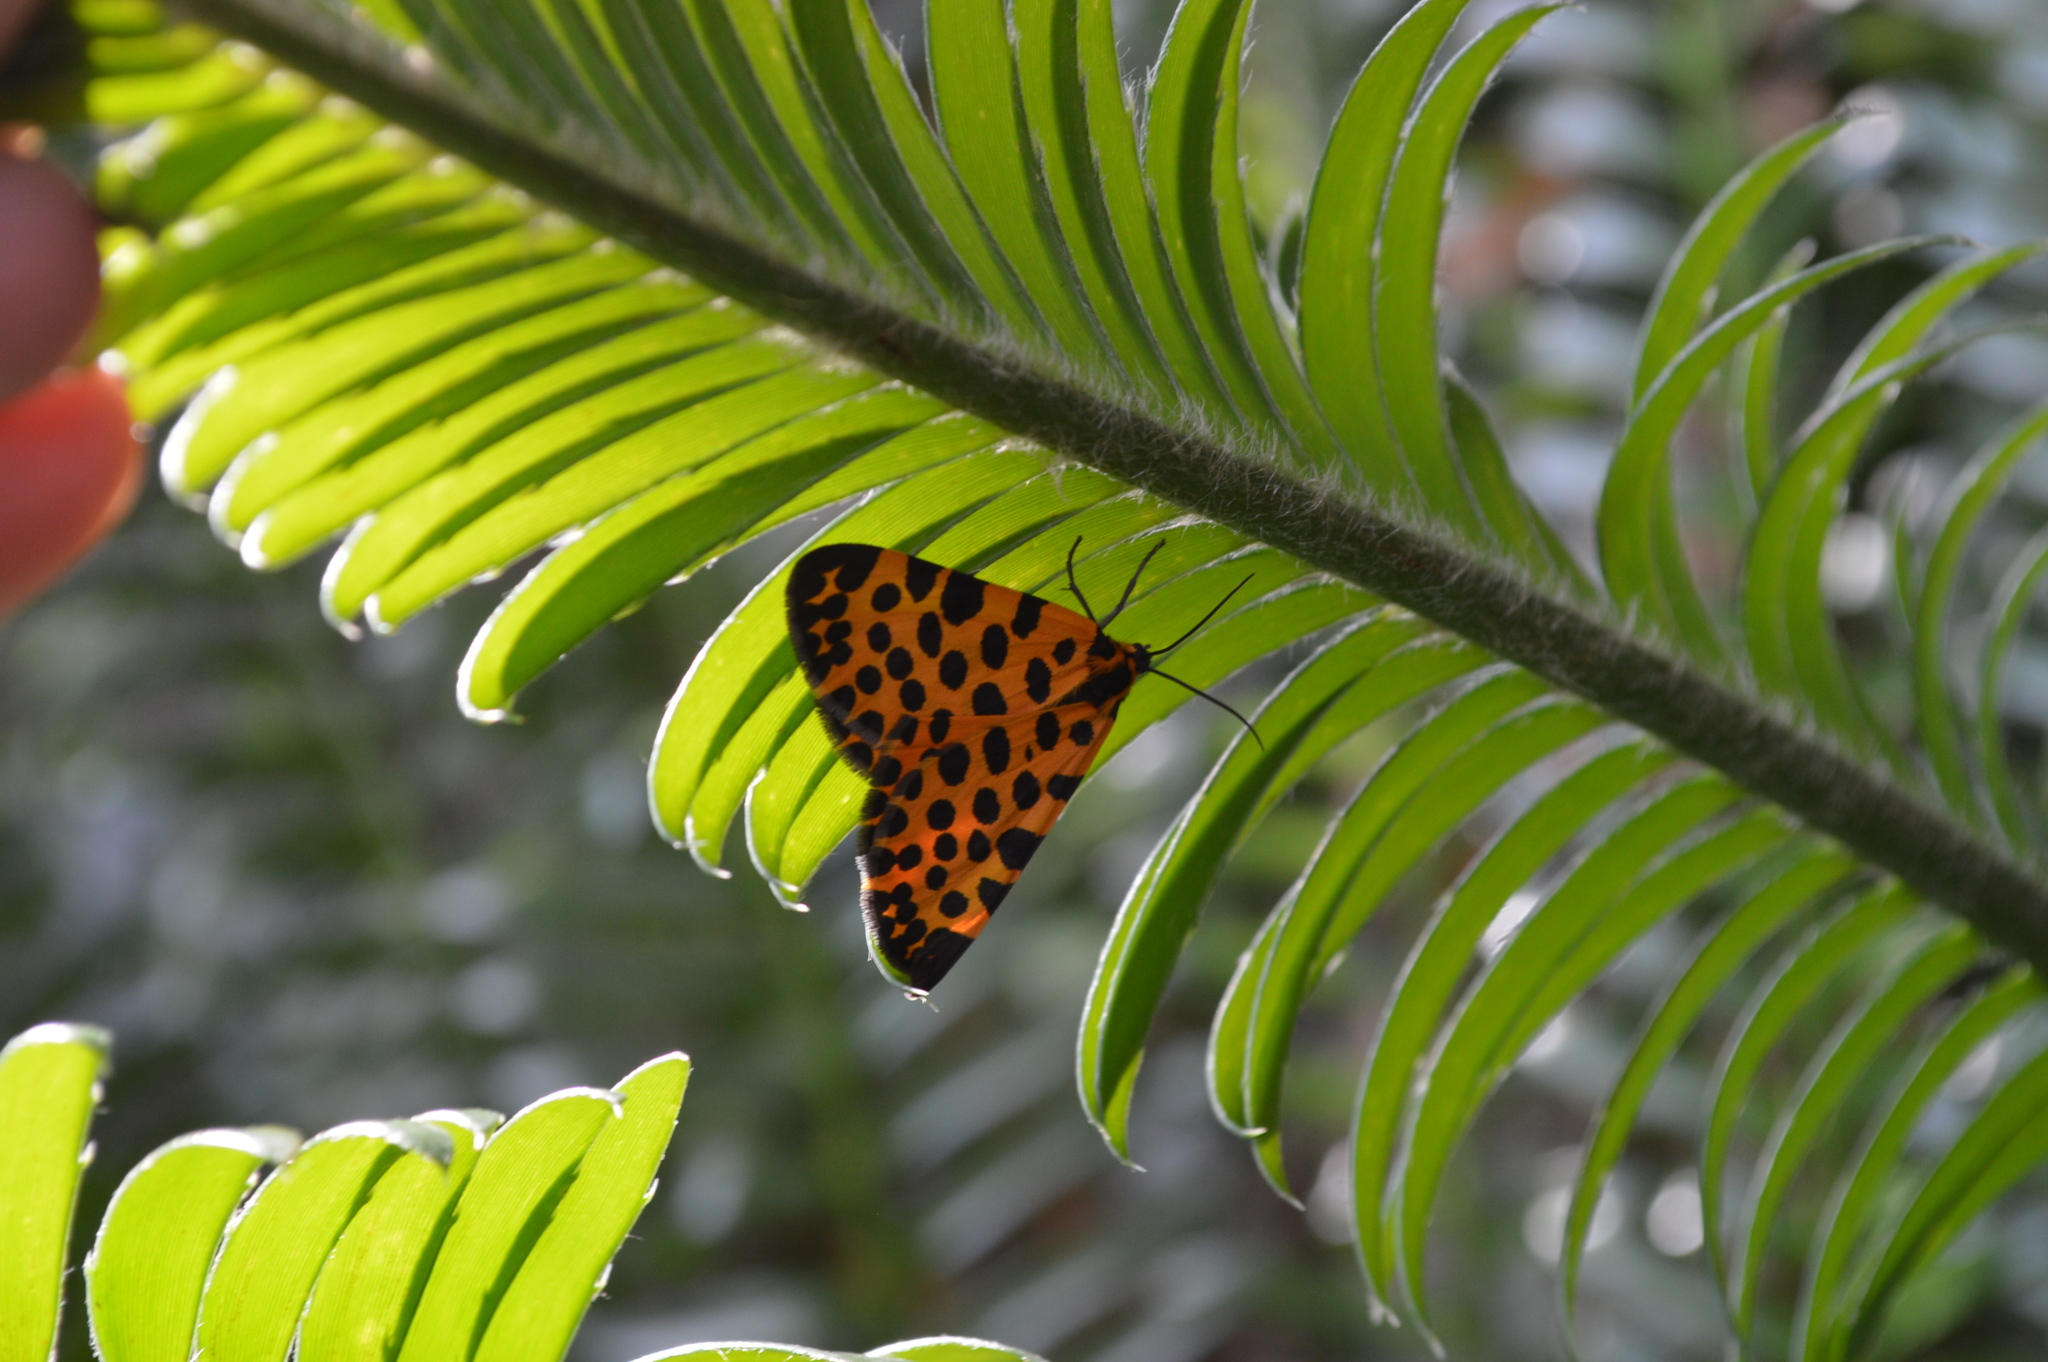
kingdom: Animalia
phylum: Arthropoda
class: Insecta
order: Lepidoptera
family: Geometridae
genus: Zerenopsis
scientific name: Zerenopsis lepida
